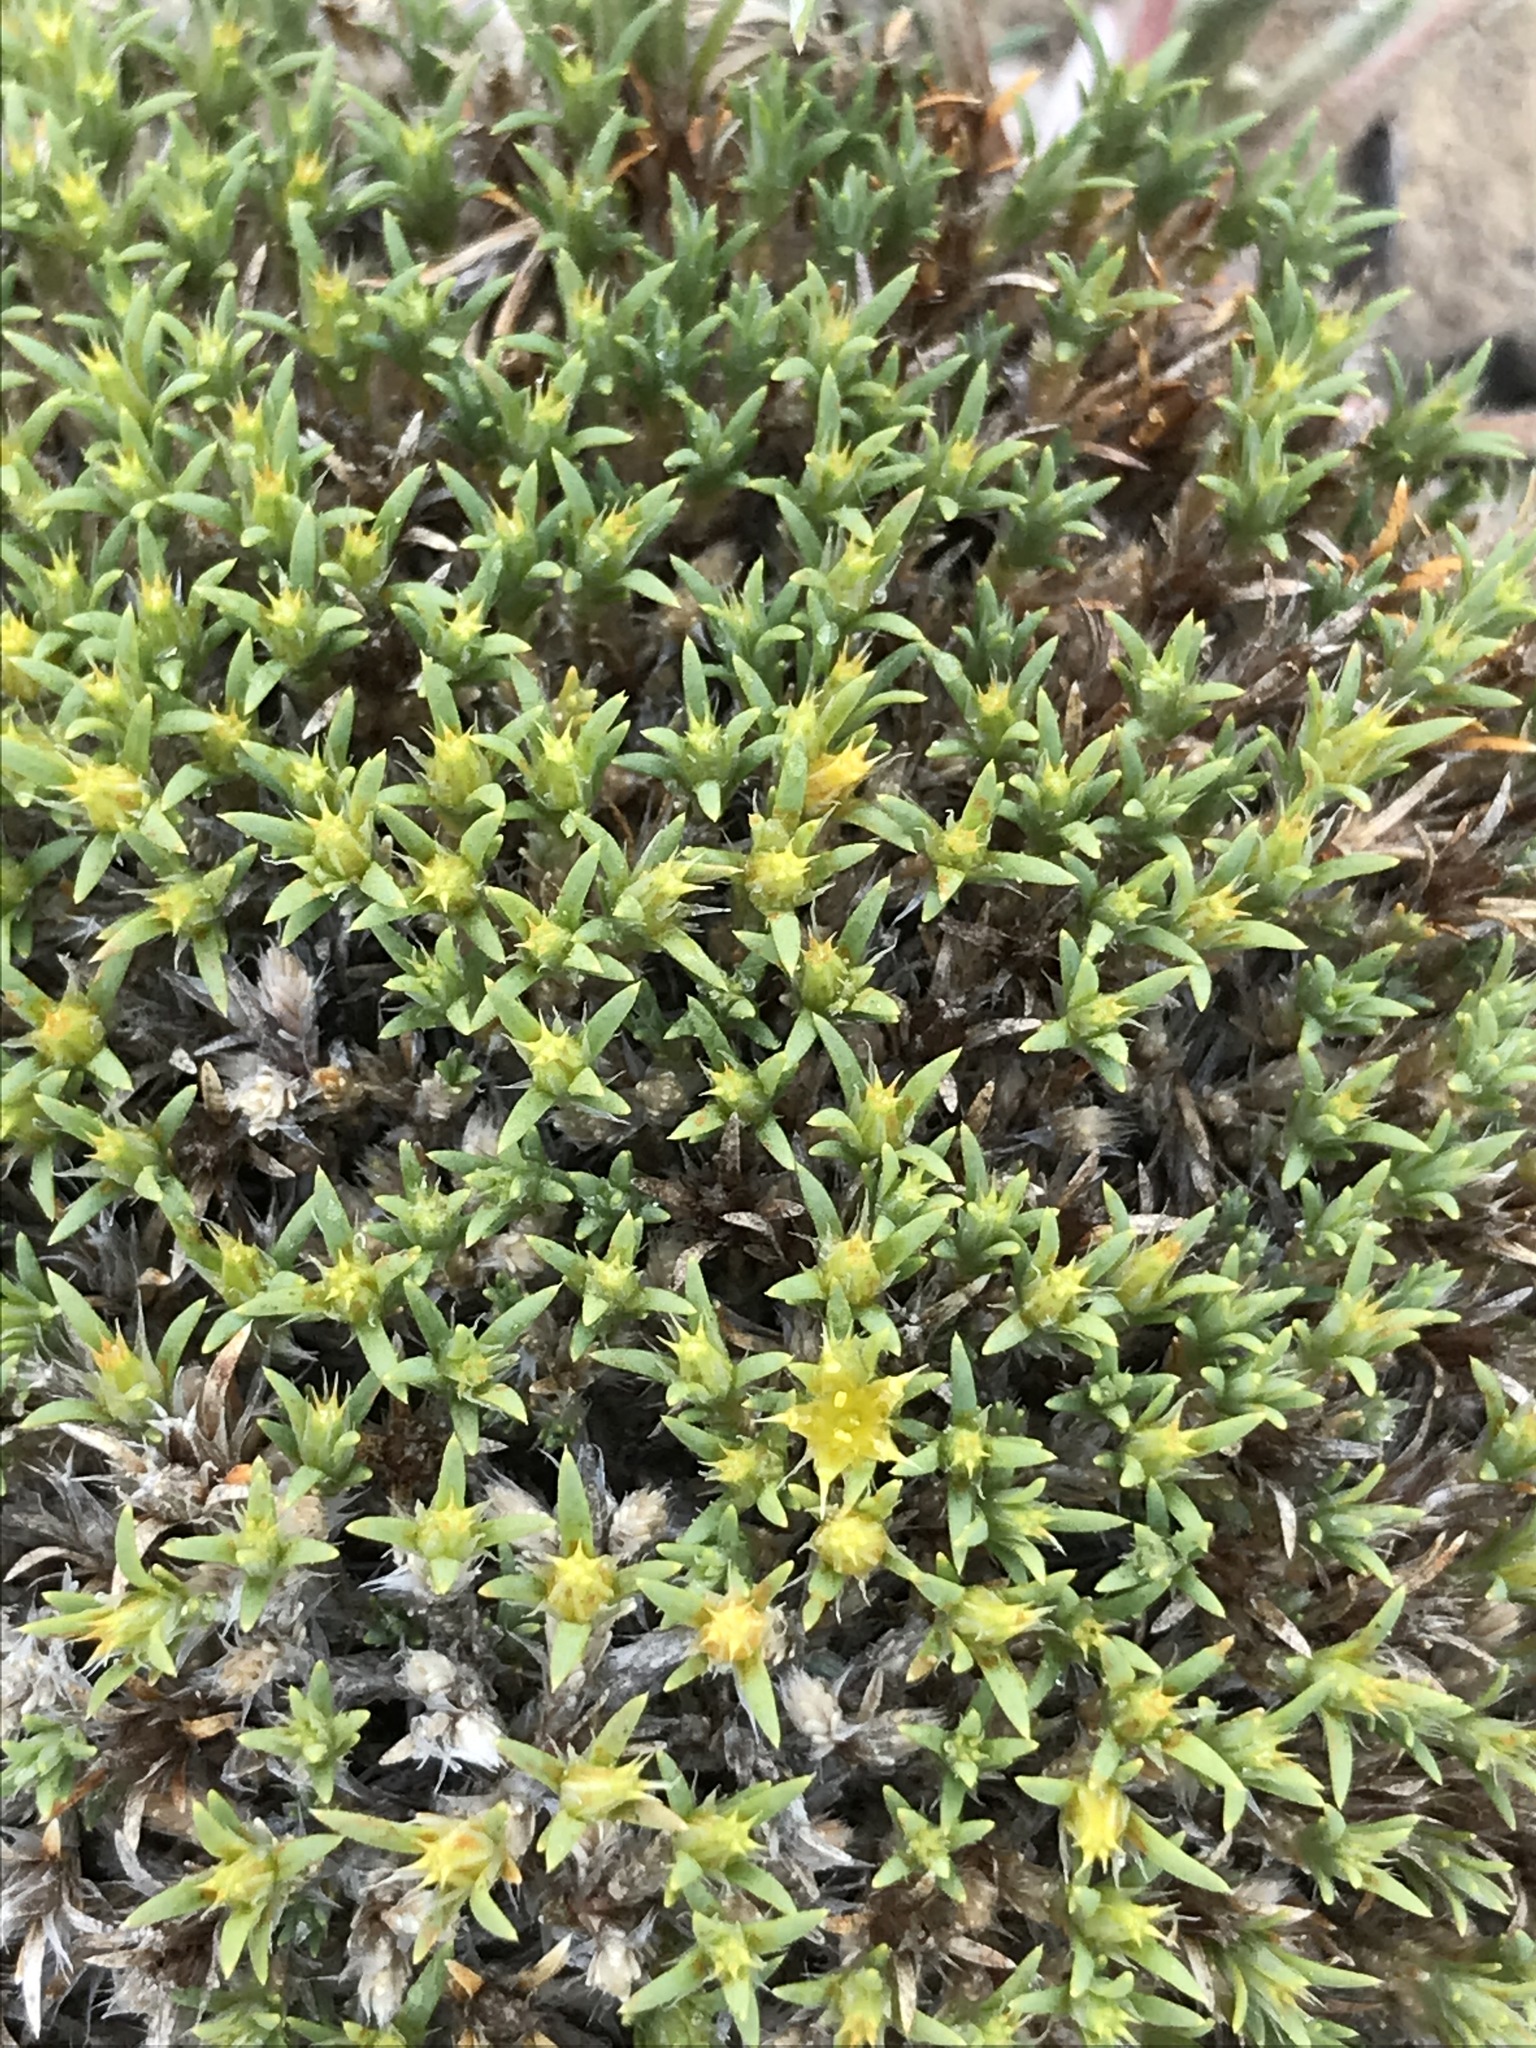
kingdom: Plantae
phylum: Tracheophyta
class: Magnoliopsida
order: Caryophyllales
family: Caryophyllaceae
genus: Paronychia
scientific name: Paronychia sessiliflora
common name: Creeping nailwort
